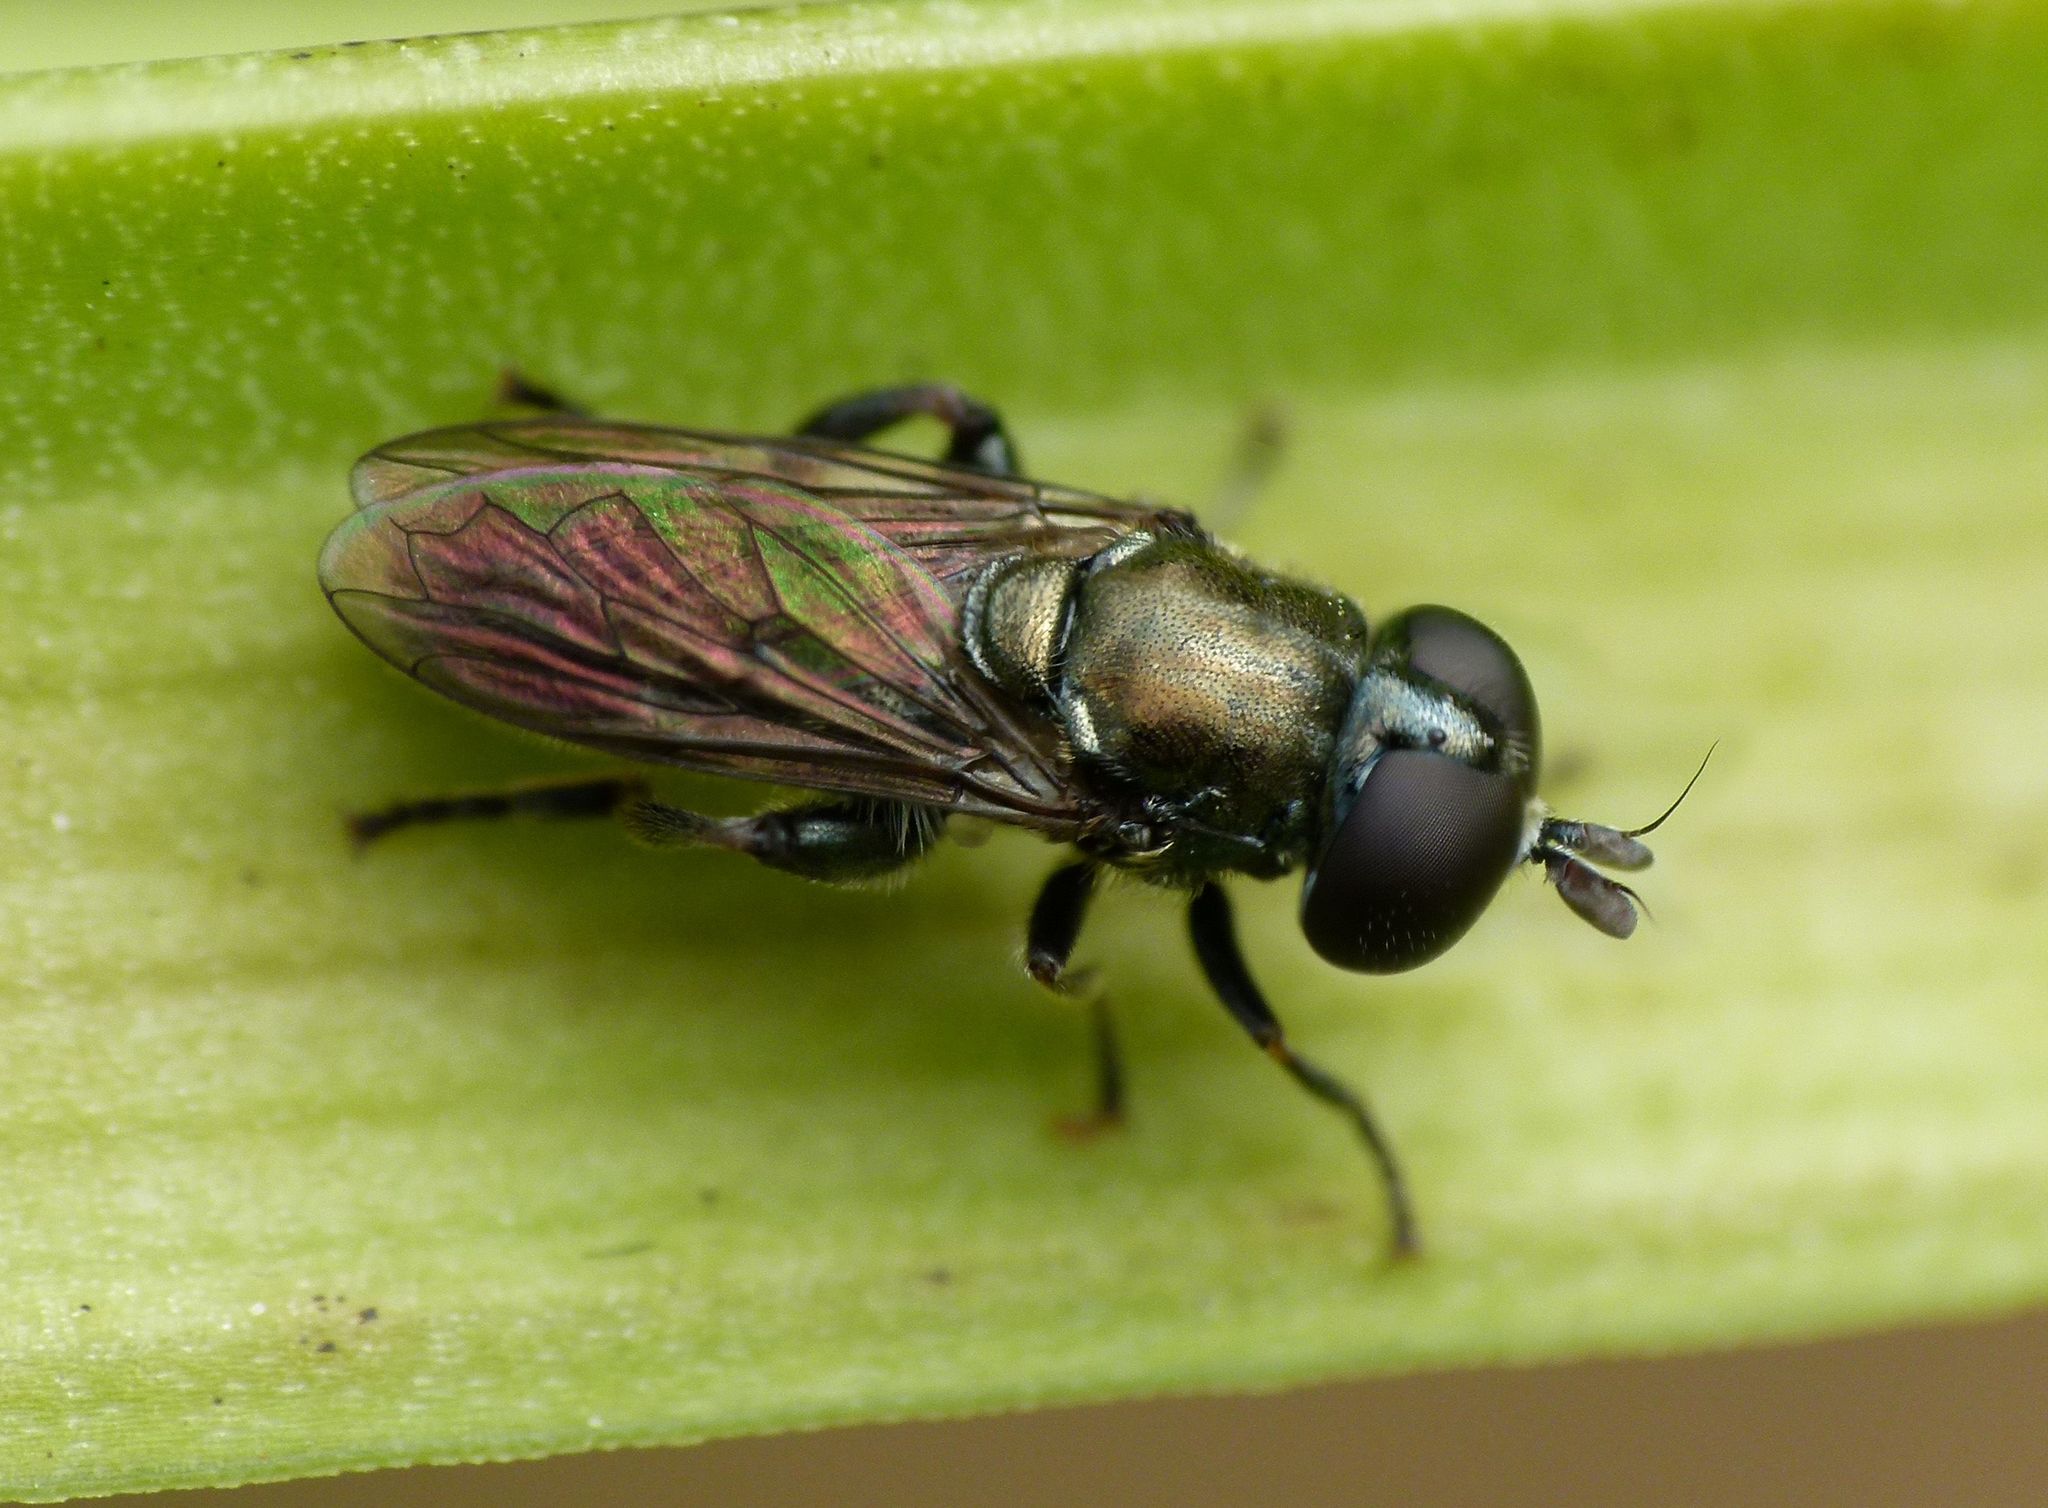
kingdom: Animalia
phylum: Arthropoda
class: Insecta
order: Diptera
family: Syrphidae
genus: Eumerus
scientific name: Eumerus
